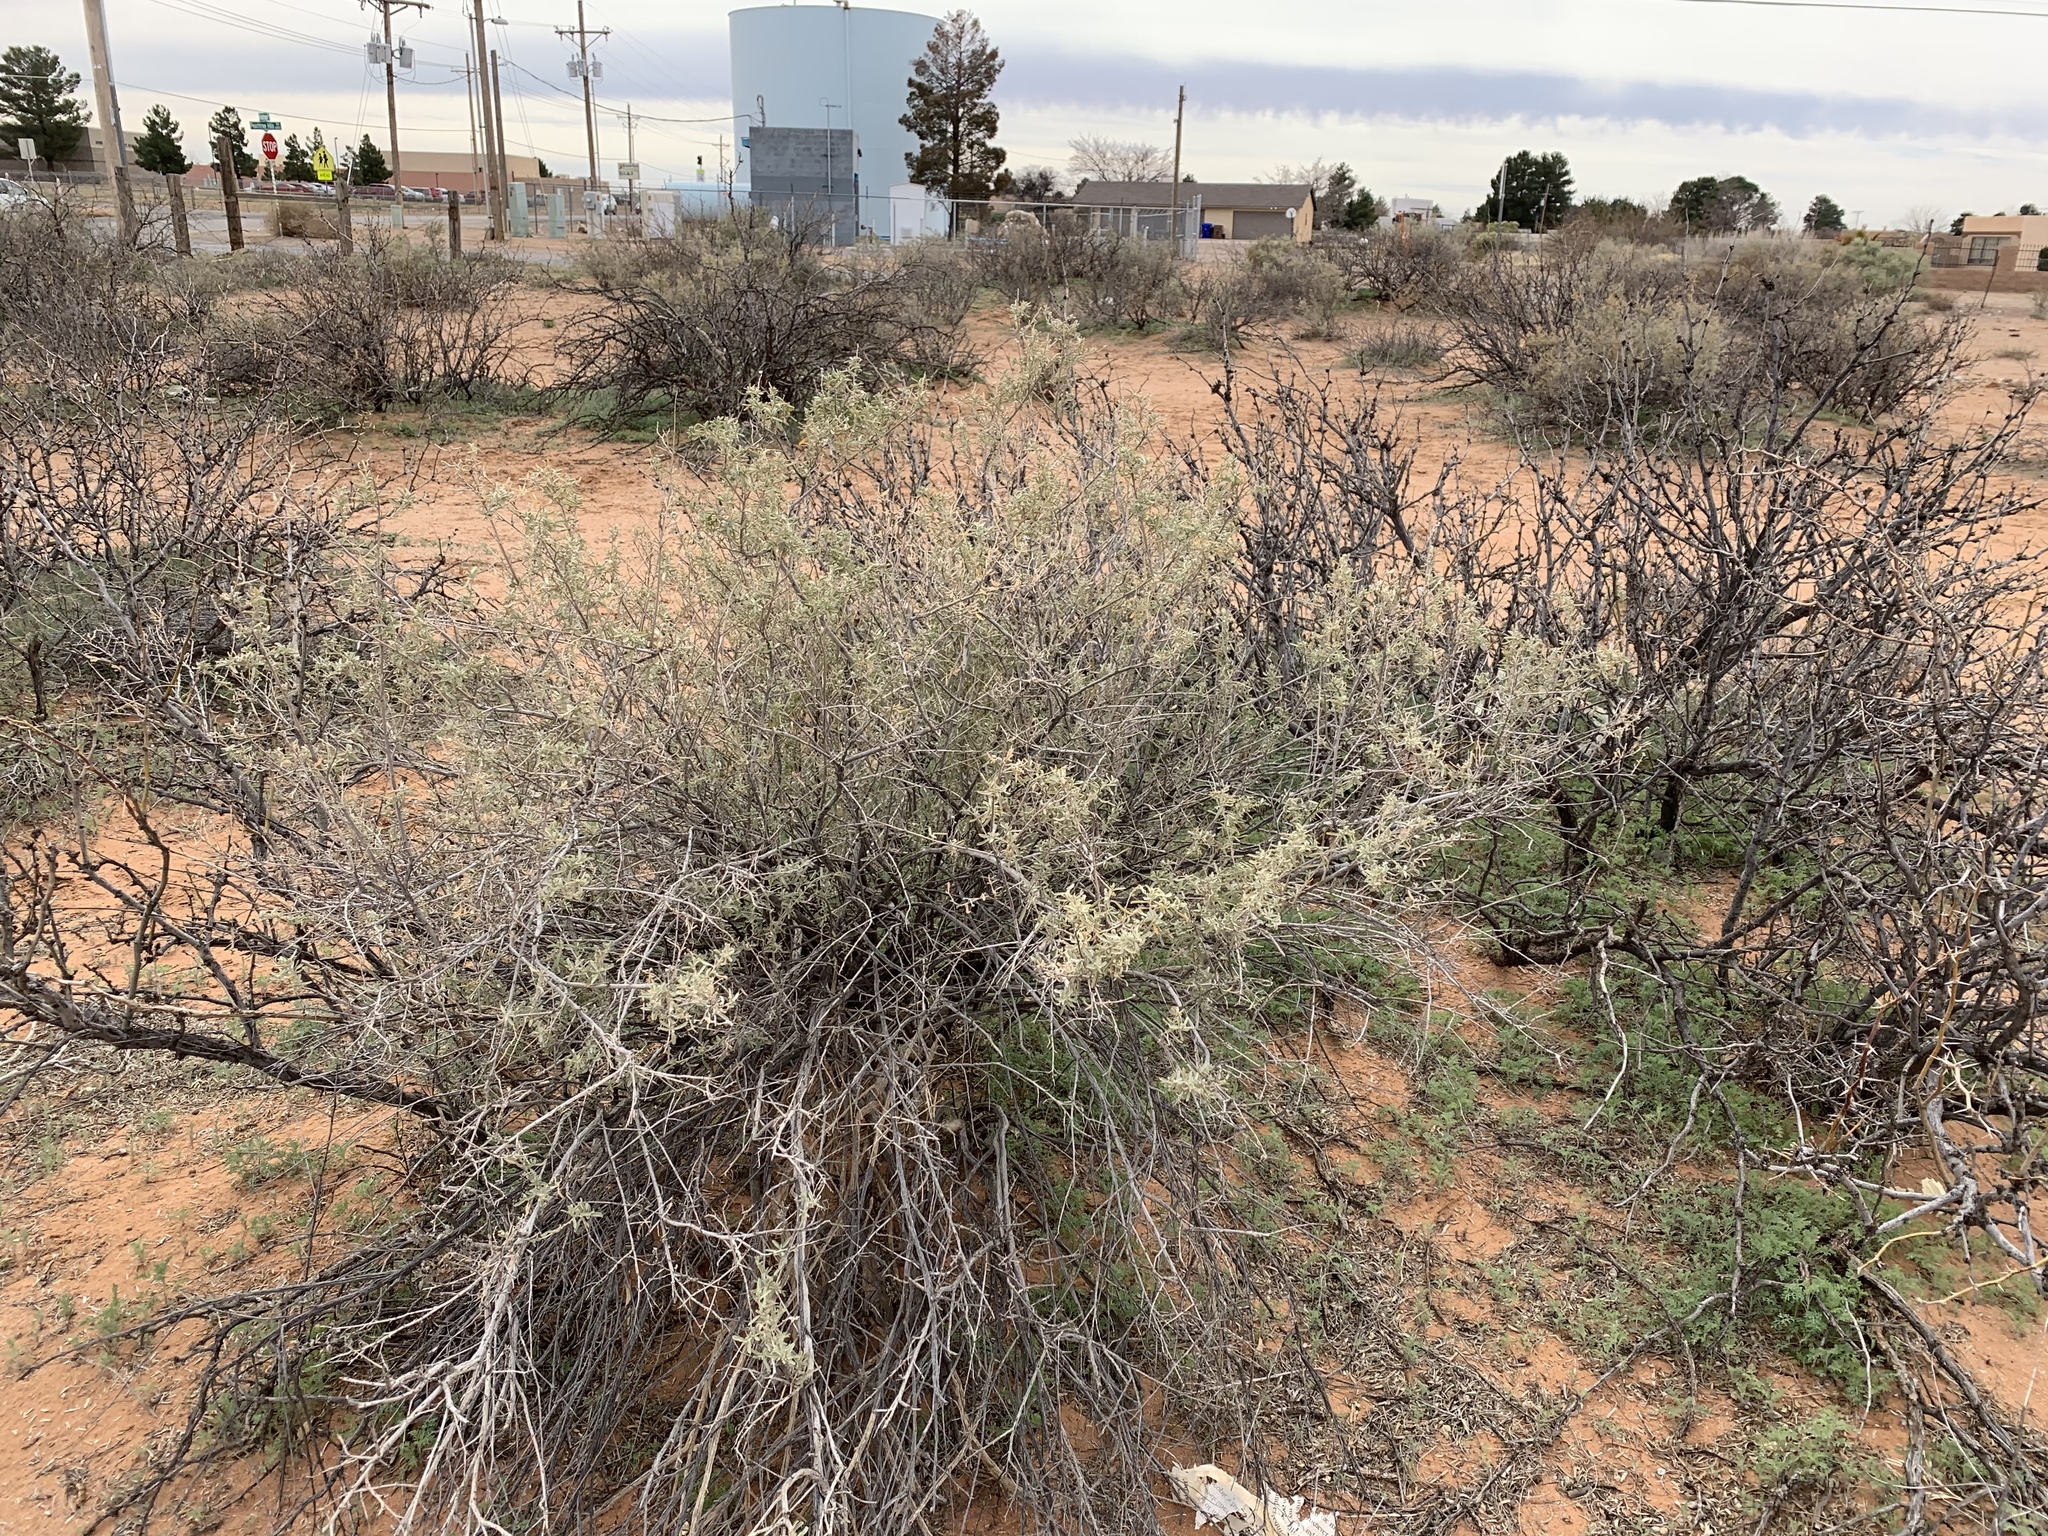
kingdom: Plantae
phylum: Tracheophyta
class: Magnoliopsida
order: Caryophyllales
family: Amaranthaceae
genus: Atriplex
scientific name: Atriplex canescens
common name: Four-wing saltbush
